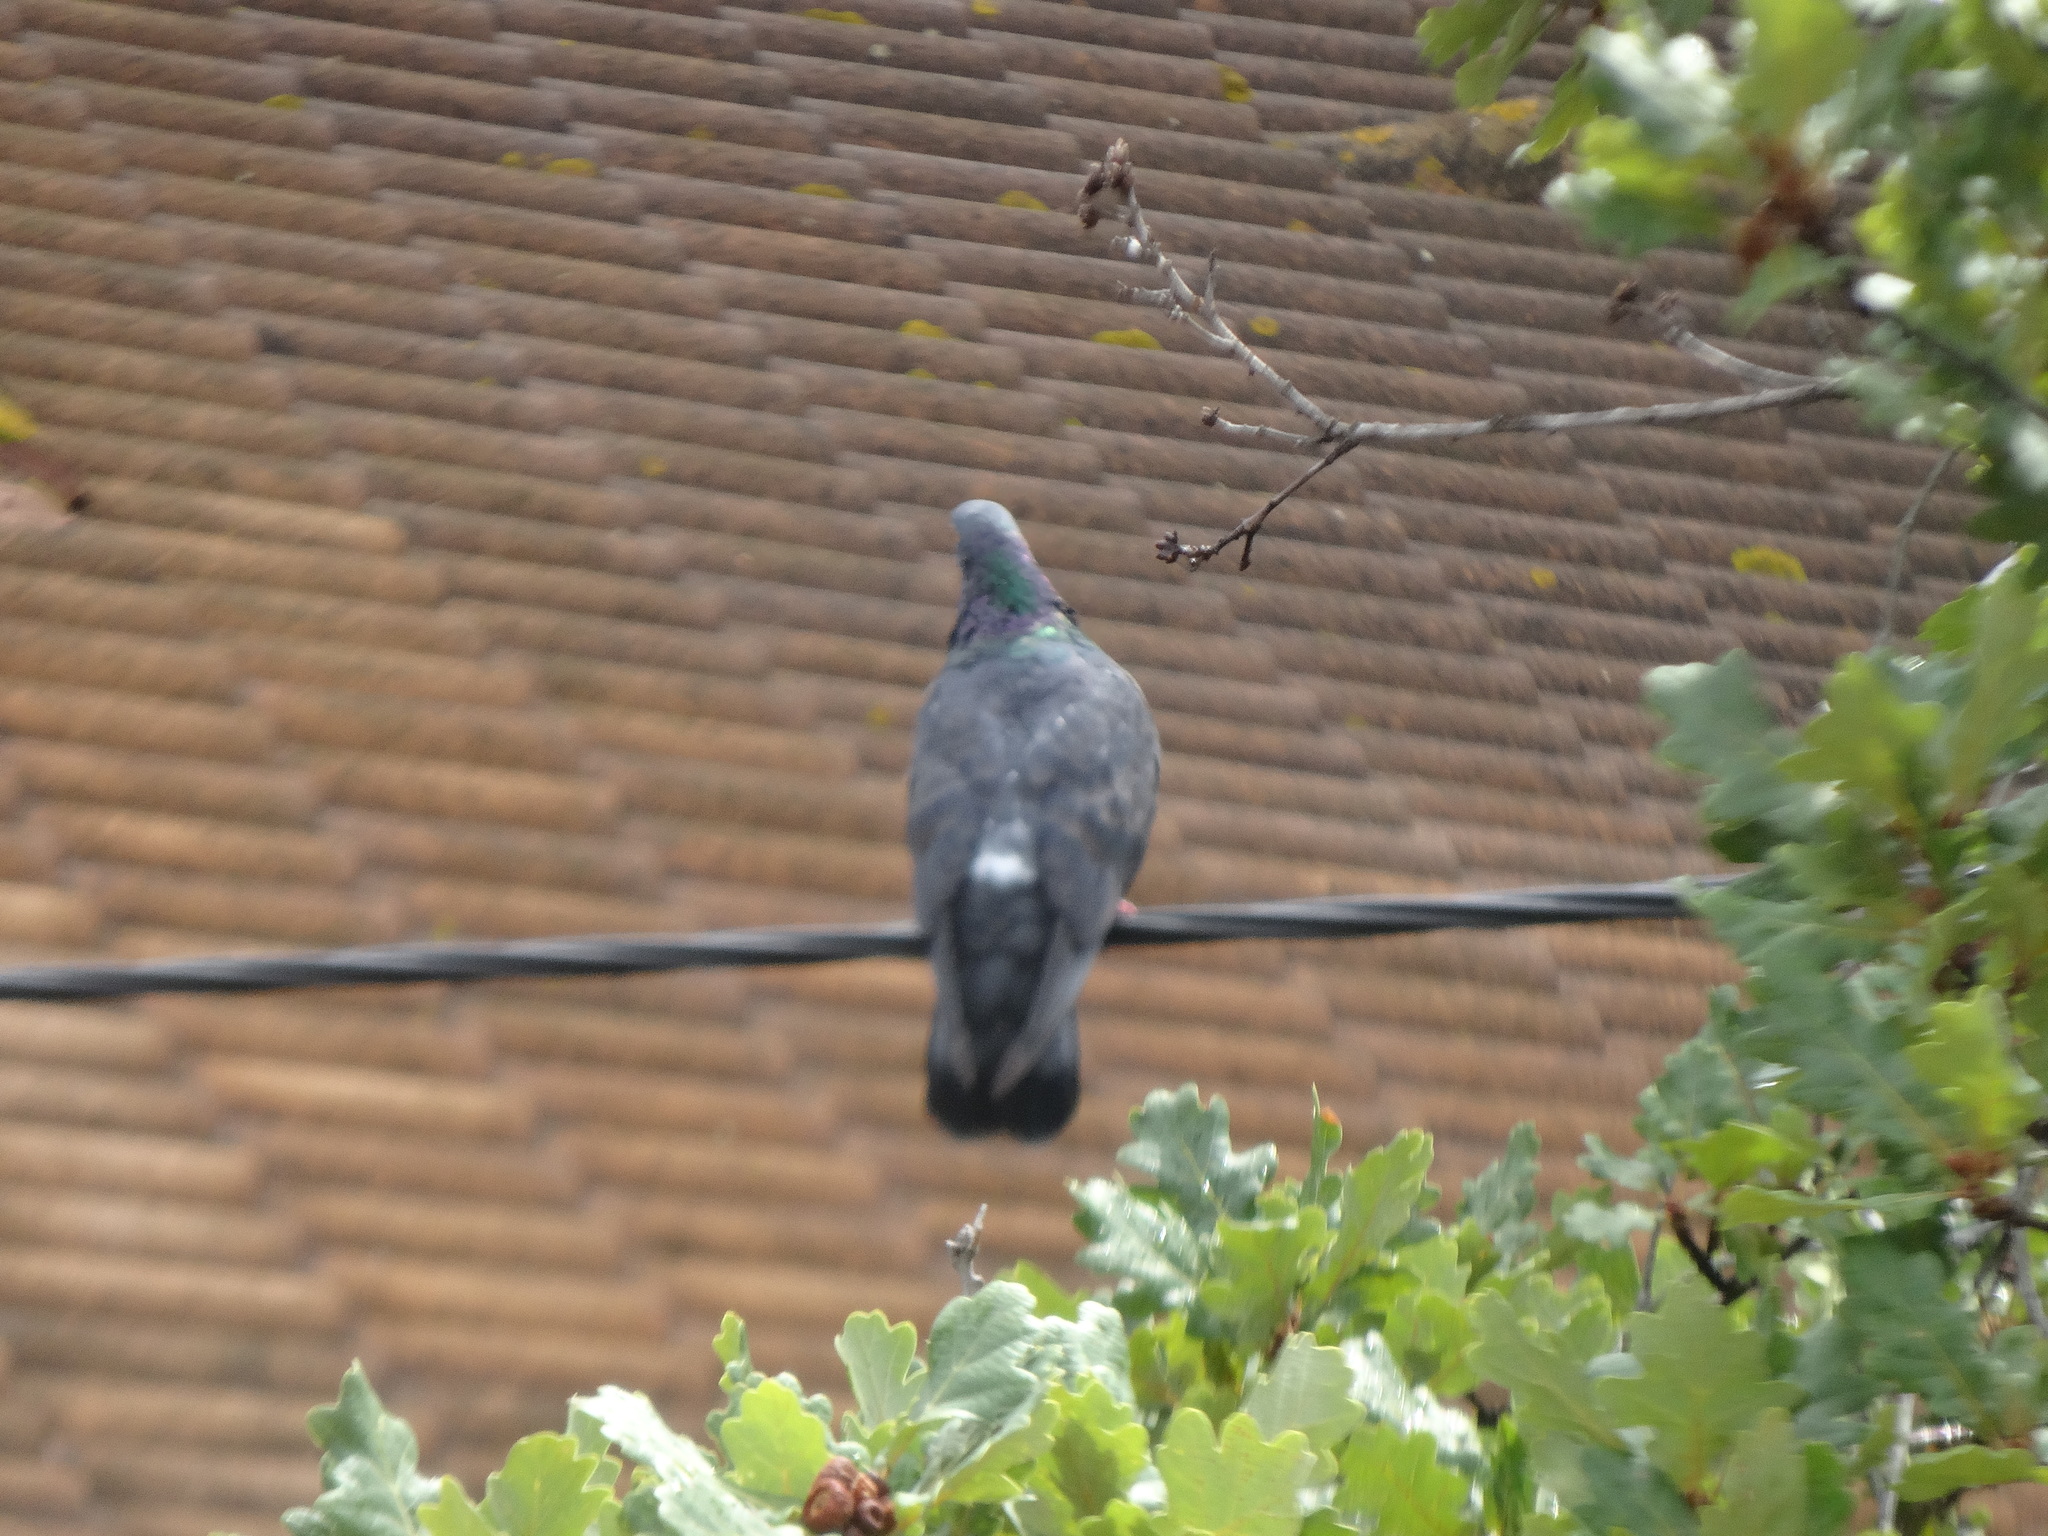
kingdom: Animalia
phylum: Chordata
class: Aves
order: Columbiformes
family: Columbidae
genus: Columba
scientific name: Columba livia
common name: Rock pigeon
